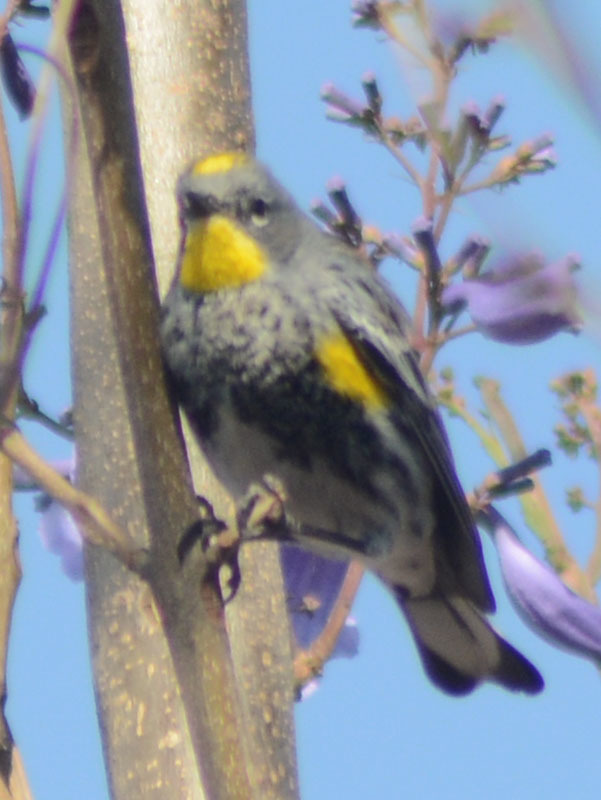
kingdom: Animalia
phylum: Chordata
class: Aves
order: Passeriformes
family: Parulidae
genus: Setophaga
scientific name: Setophaga auduboni
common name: Audubon's warbler
